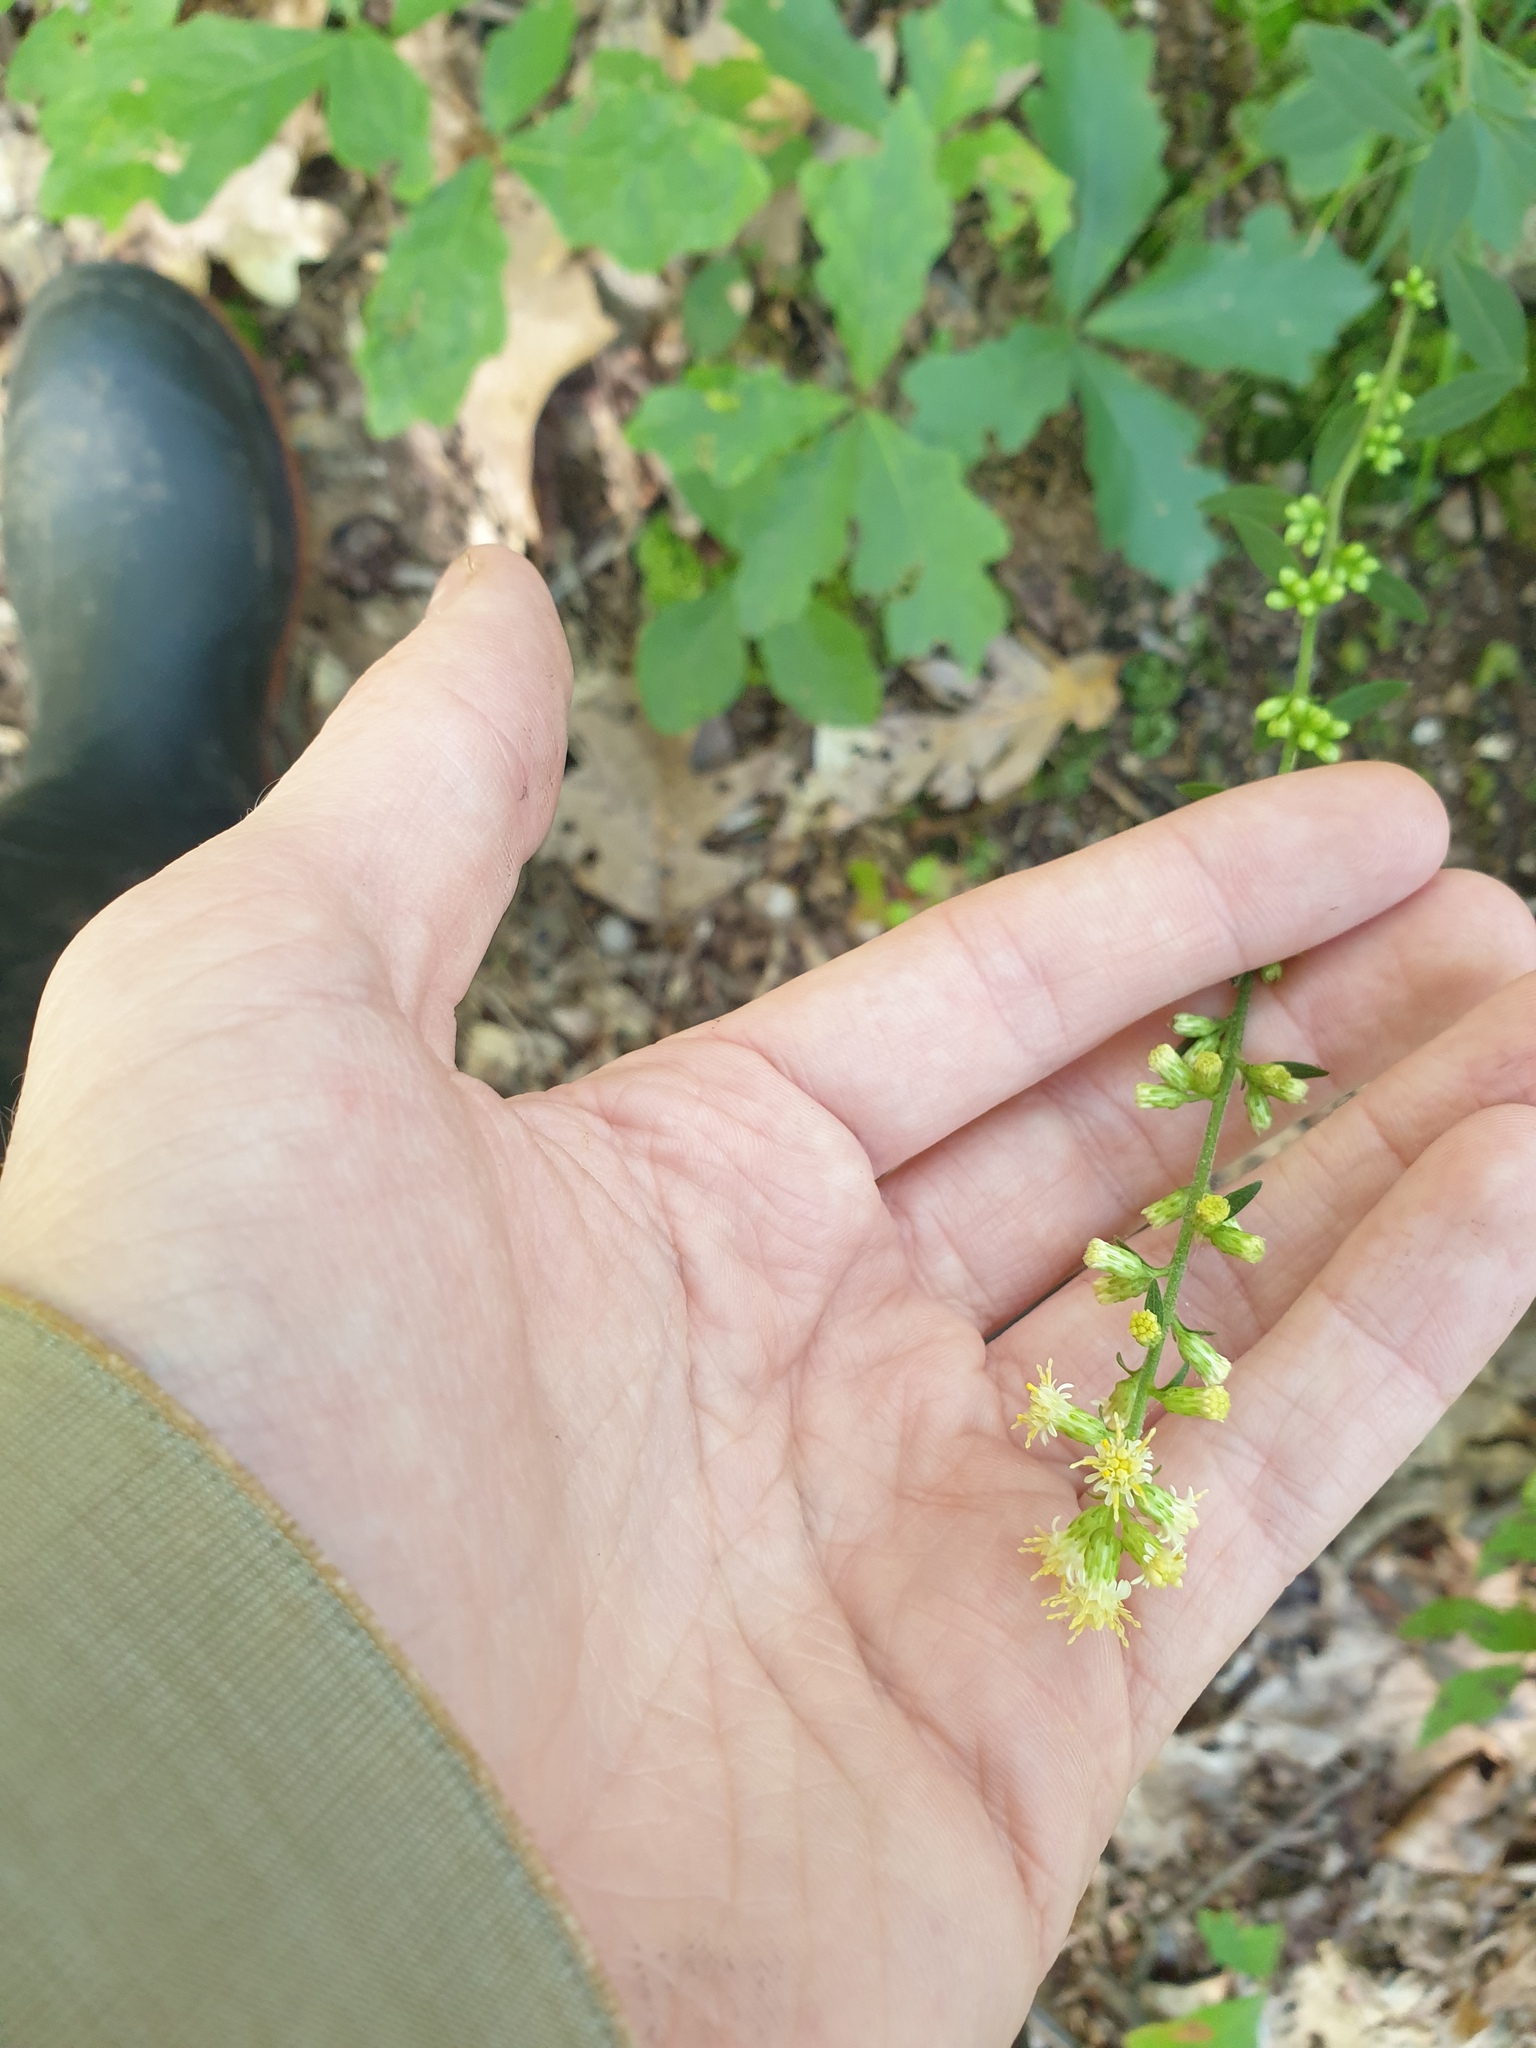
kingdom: Plantae
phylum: Tracheophyta
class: Magnoliopsida
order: Asterales
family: Asteraceae
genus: Solidago
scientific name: Solidago bicolor
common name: Silverrod
